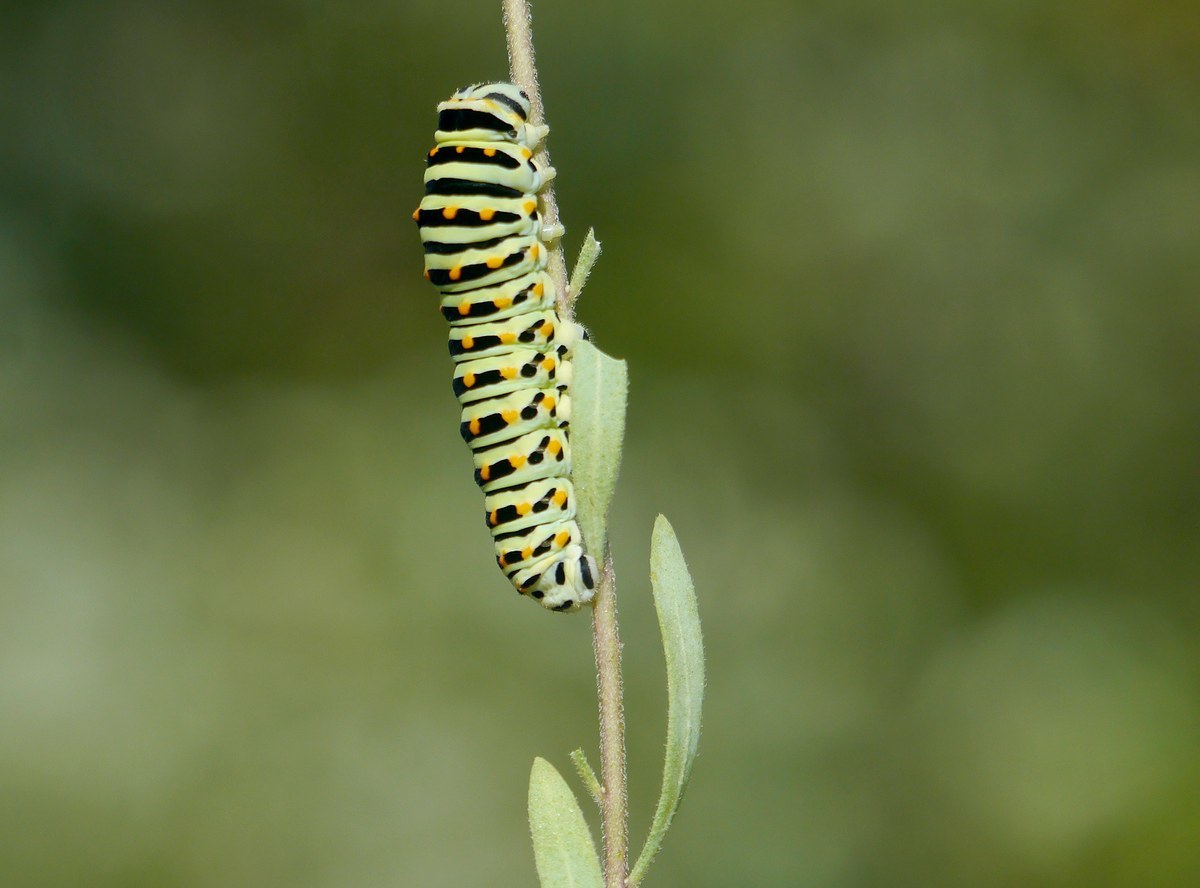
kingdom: Animalia
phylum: Arthropoda
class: Insecta
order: Lepidoptera
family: Papilionidae
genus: Papilio
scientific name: Papilio machaon
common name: Swallowtail
